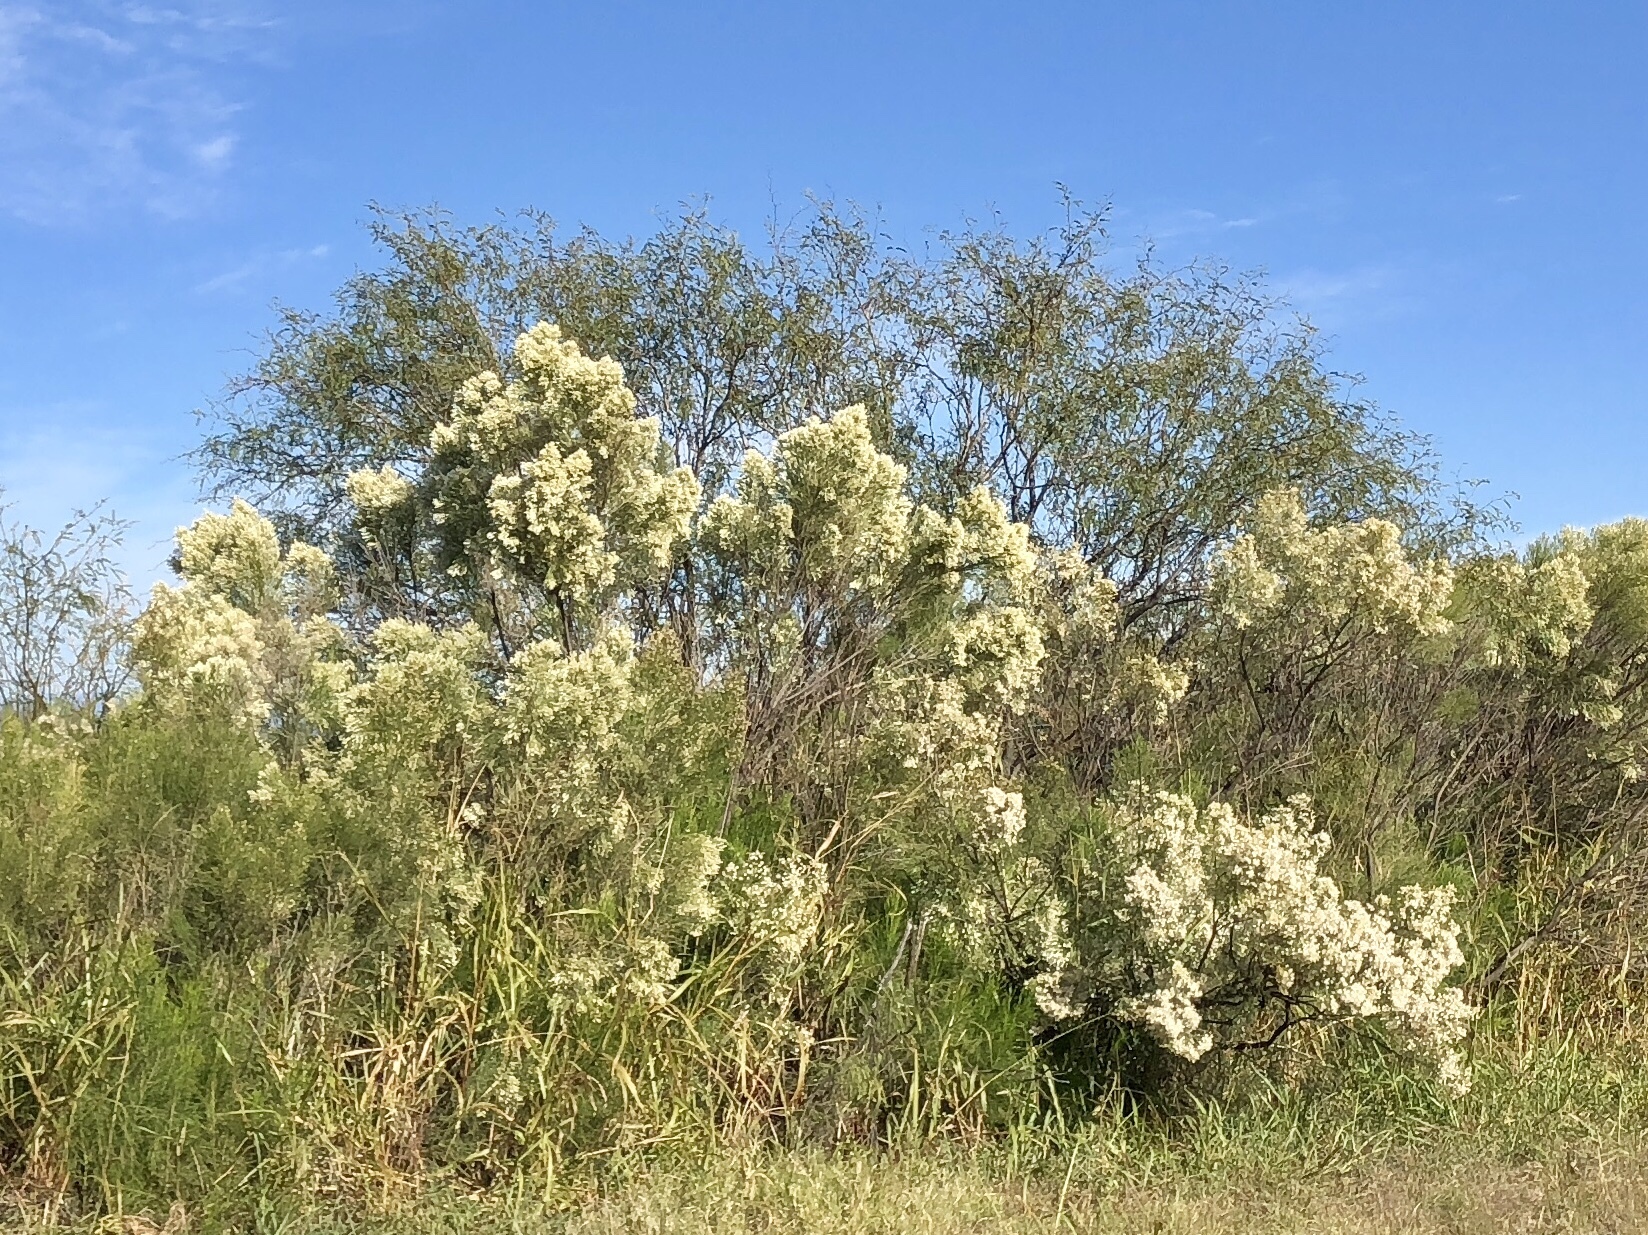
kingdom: Plantae
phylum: Tracheophyta
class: Magnoliopsida
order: Asterales
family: Asteraceae
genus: Baccharis
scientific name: Baccharis sarothroides
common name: Desert-broom
